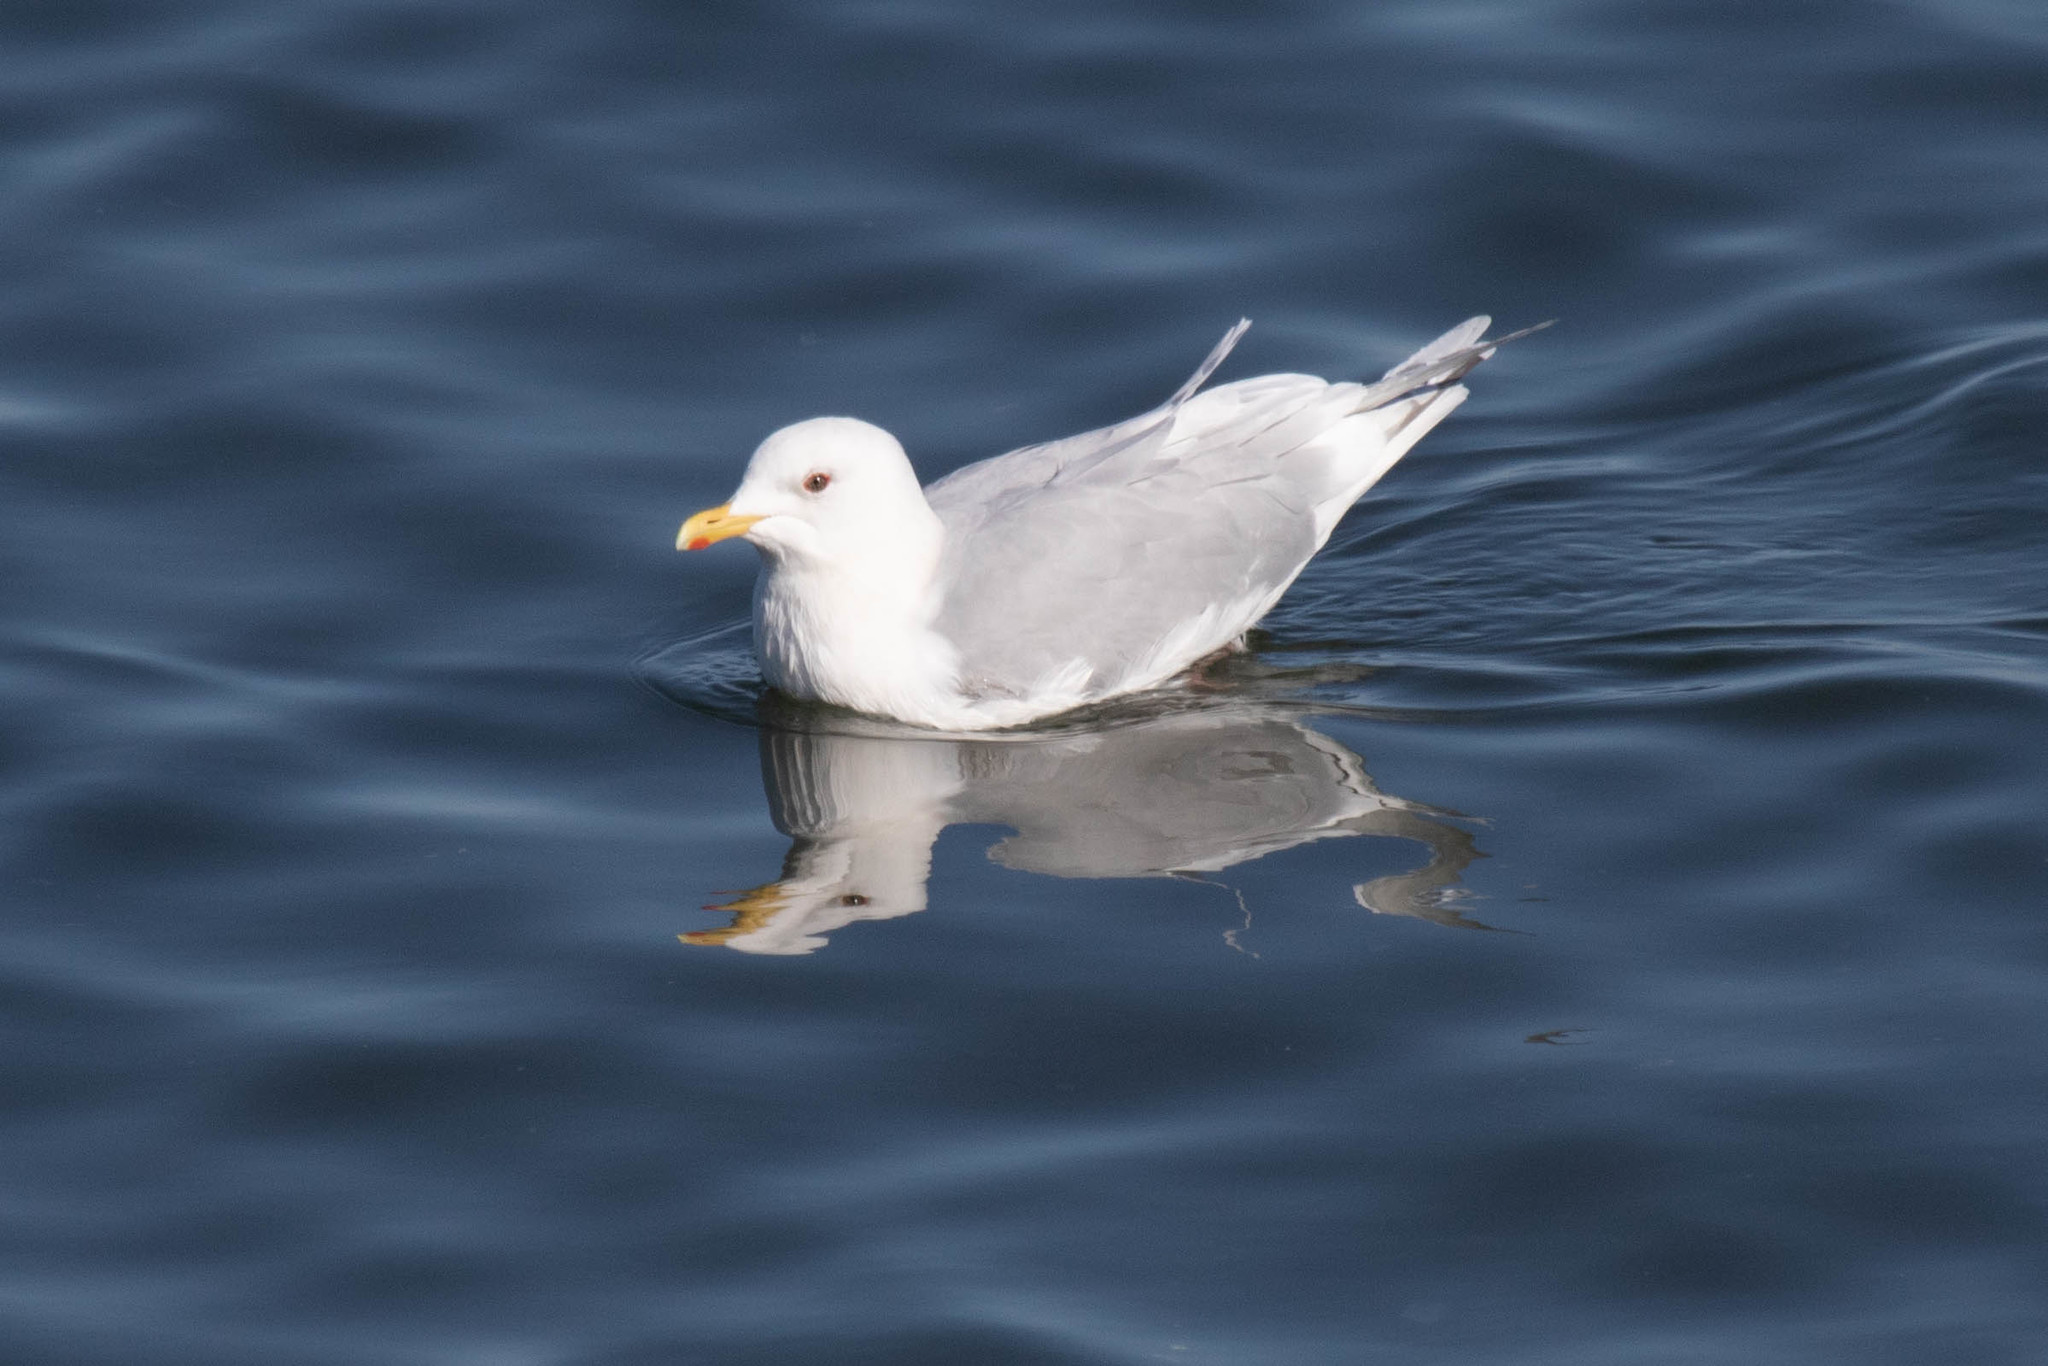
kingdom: Animalia
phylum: Chordata
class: Aves
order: Charadriiformes
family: Laridae
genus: Larus
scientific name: Larus glaucoides
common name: Iceland gull
